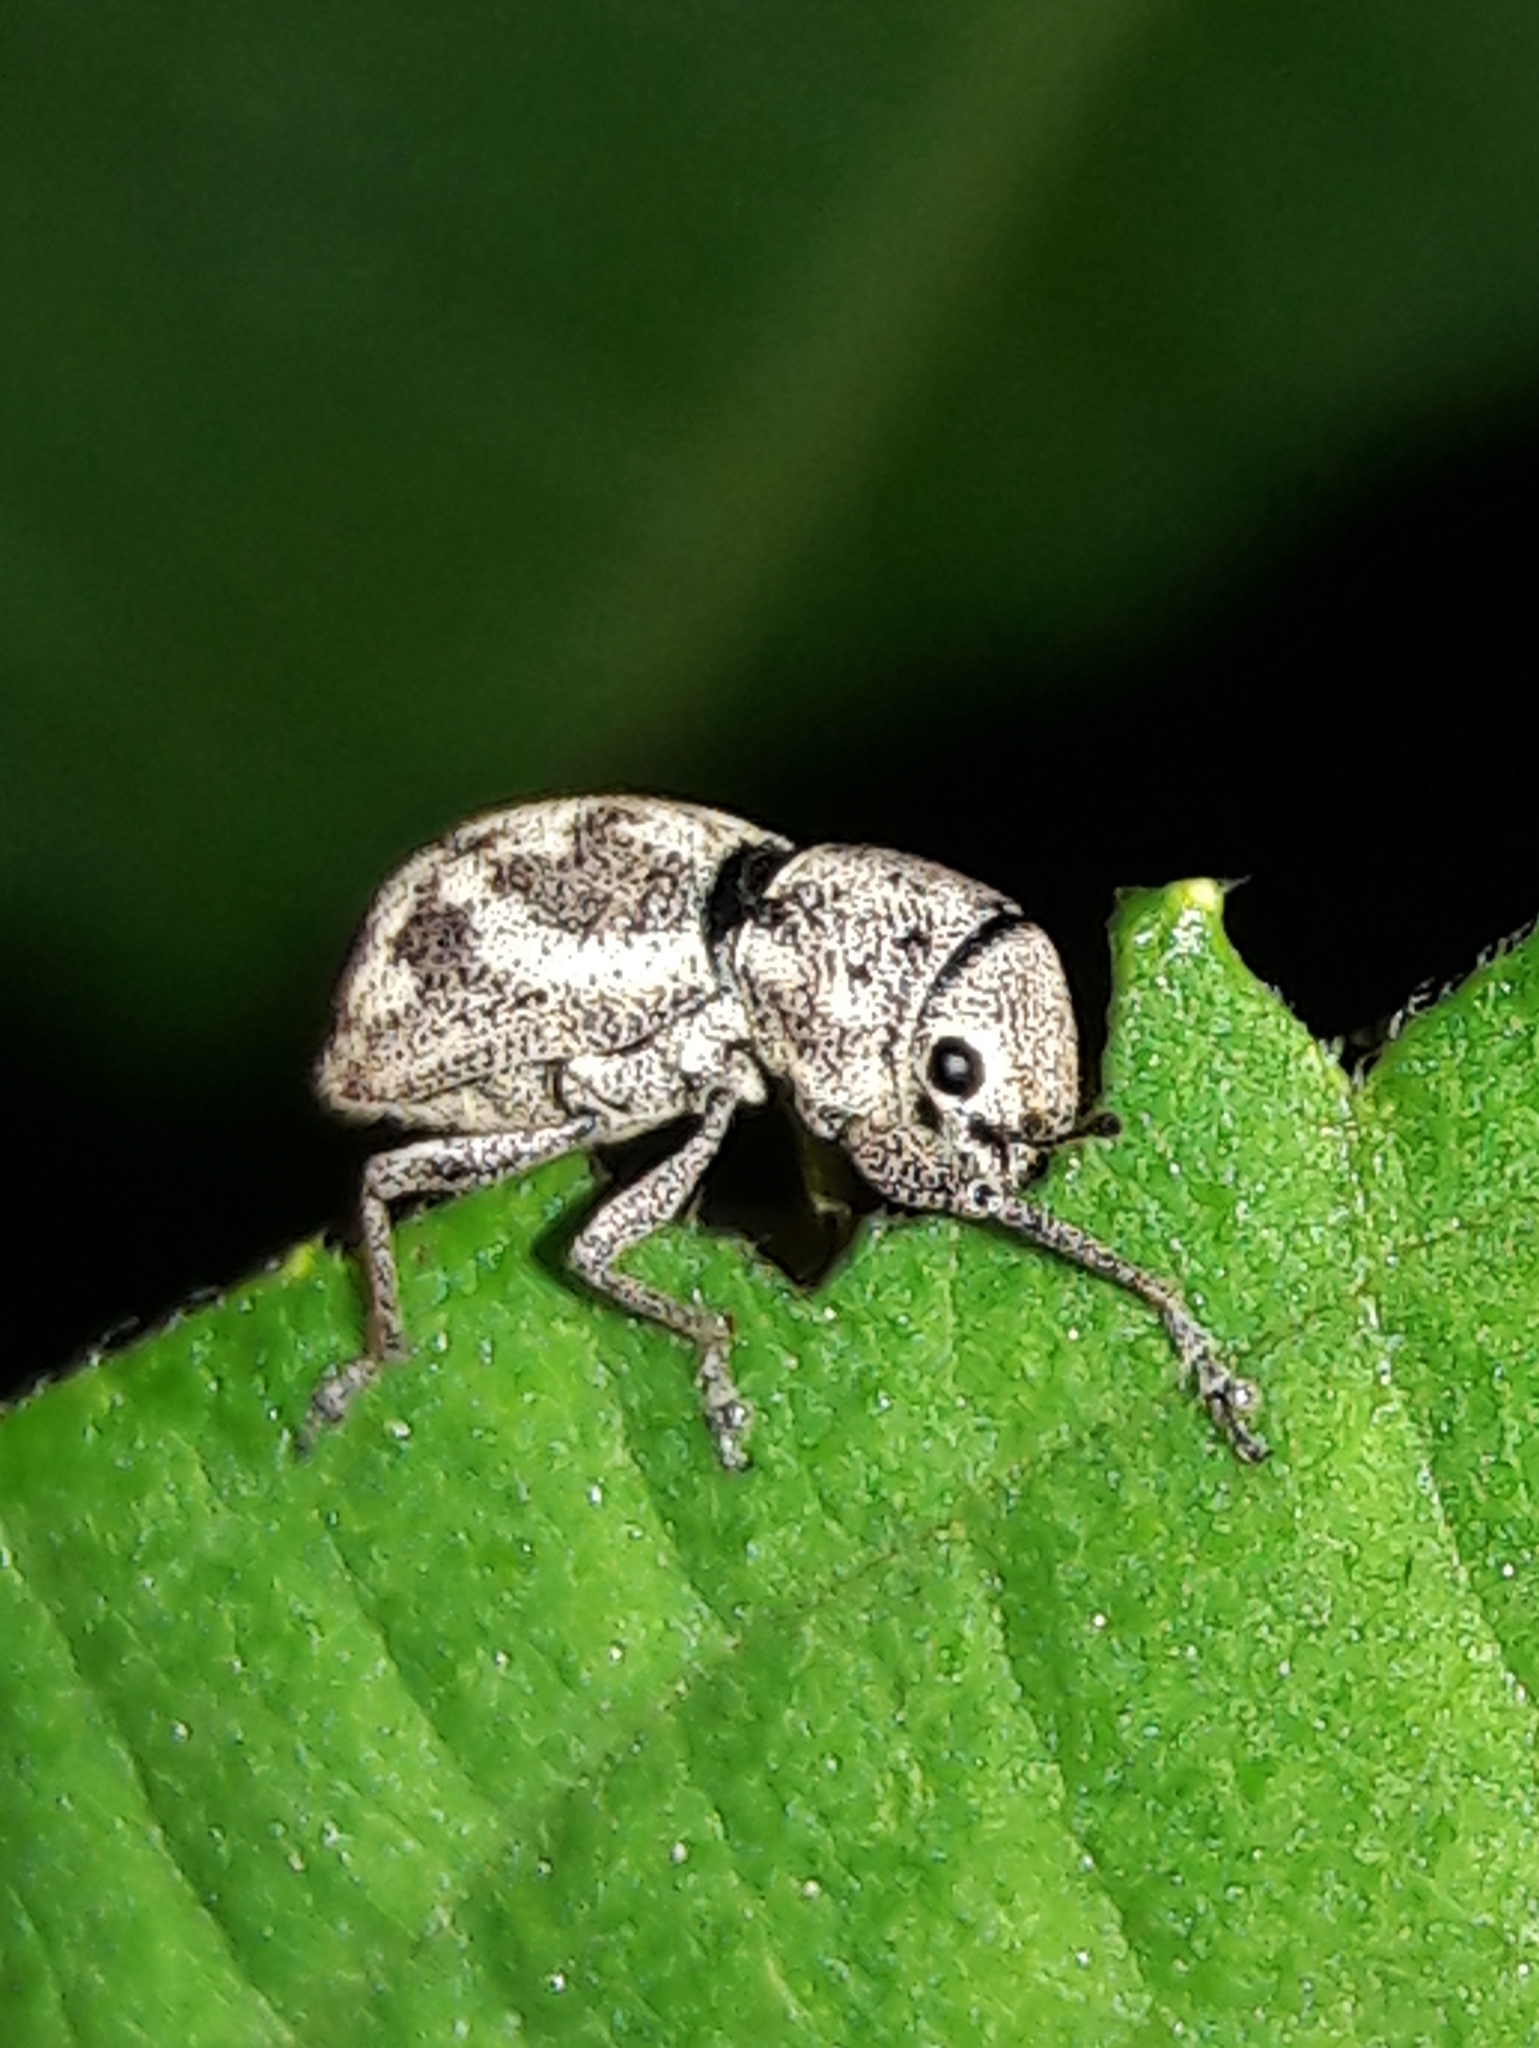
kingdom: Animalia
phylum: Arthropoda
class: Insecta
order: Coleoptera
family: Curculionidae
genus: Parapantomorus
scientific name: Parapantomorus fluctuosus
